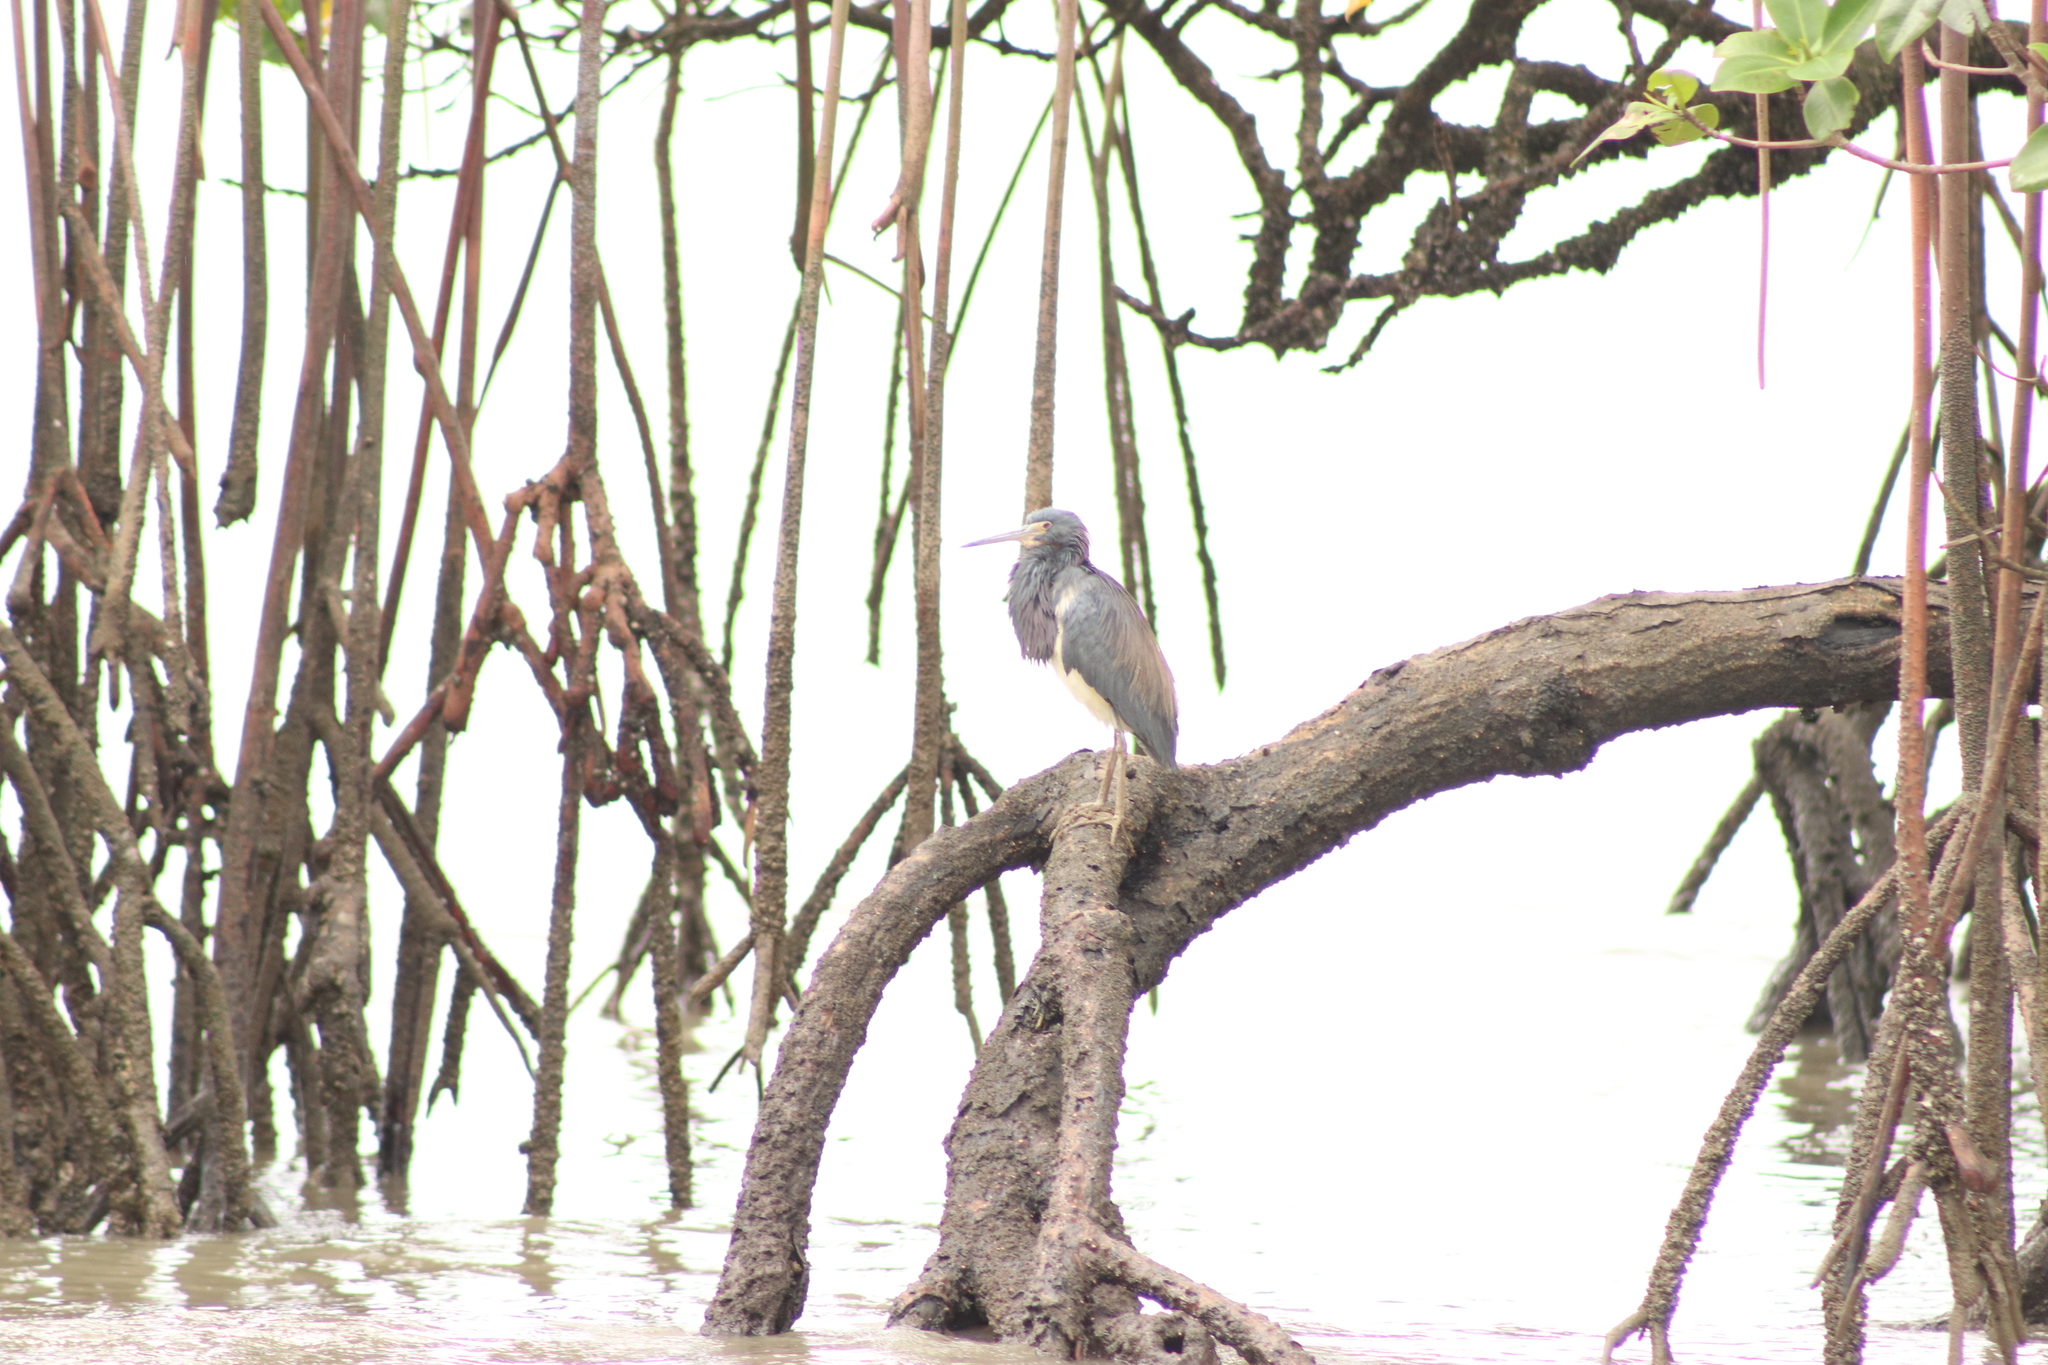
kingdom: Animalia
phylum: Chordata
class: Aves
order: Pelecaniformes
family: Ardeidae
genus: Egretta
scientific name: Egretta tricolor
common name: Tricolored heron
